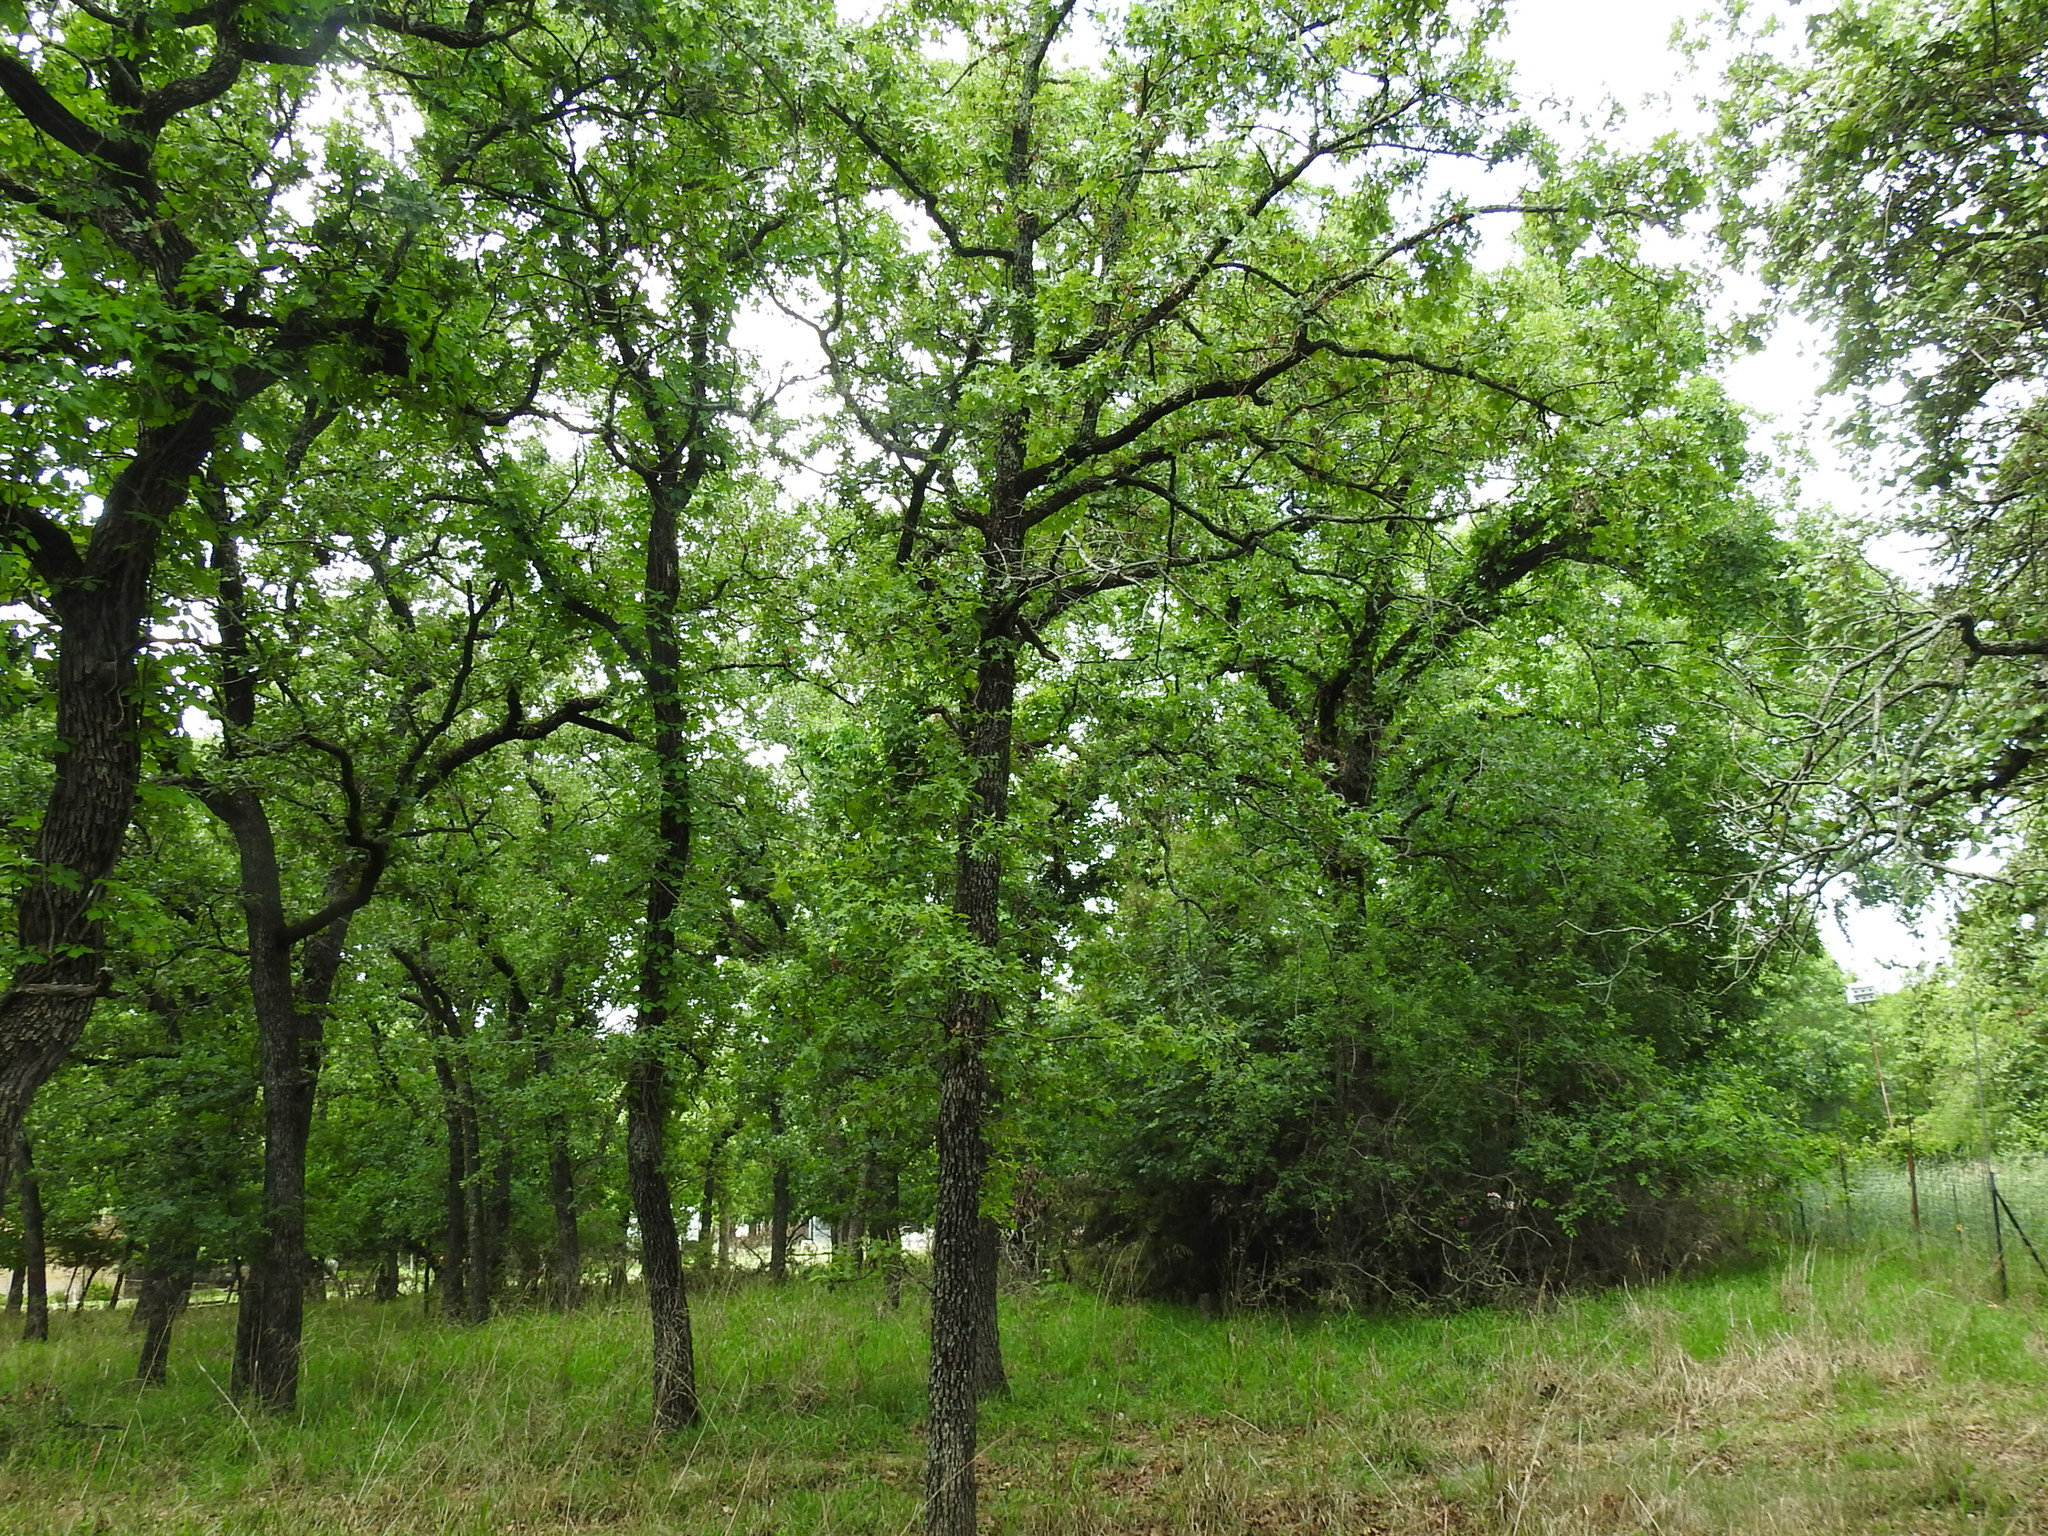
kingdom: Plantae
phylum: Tracheophyta
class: Magnoliopsida
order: Fagales
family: Fagaceae
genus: Quercus
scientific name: Quercus stellata
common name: Post oak
